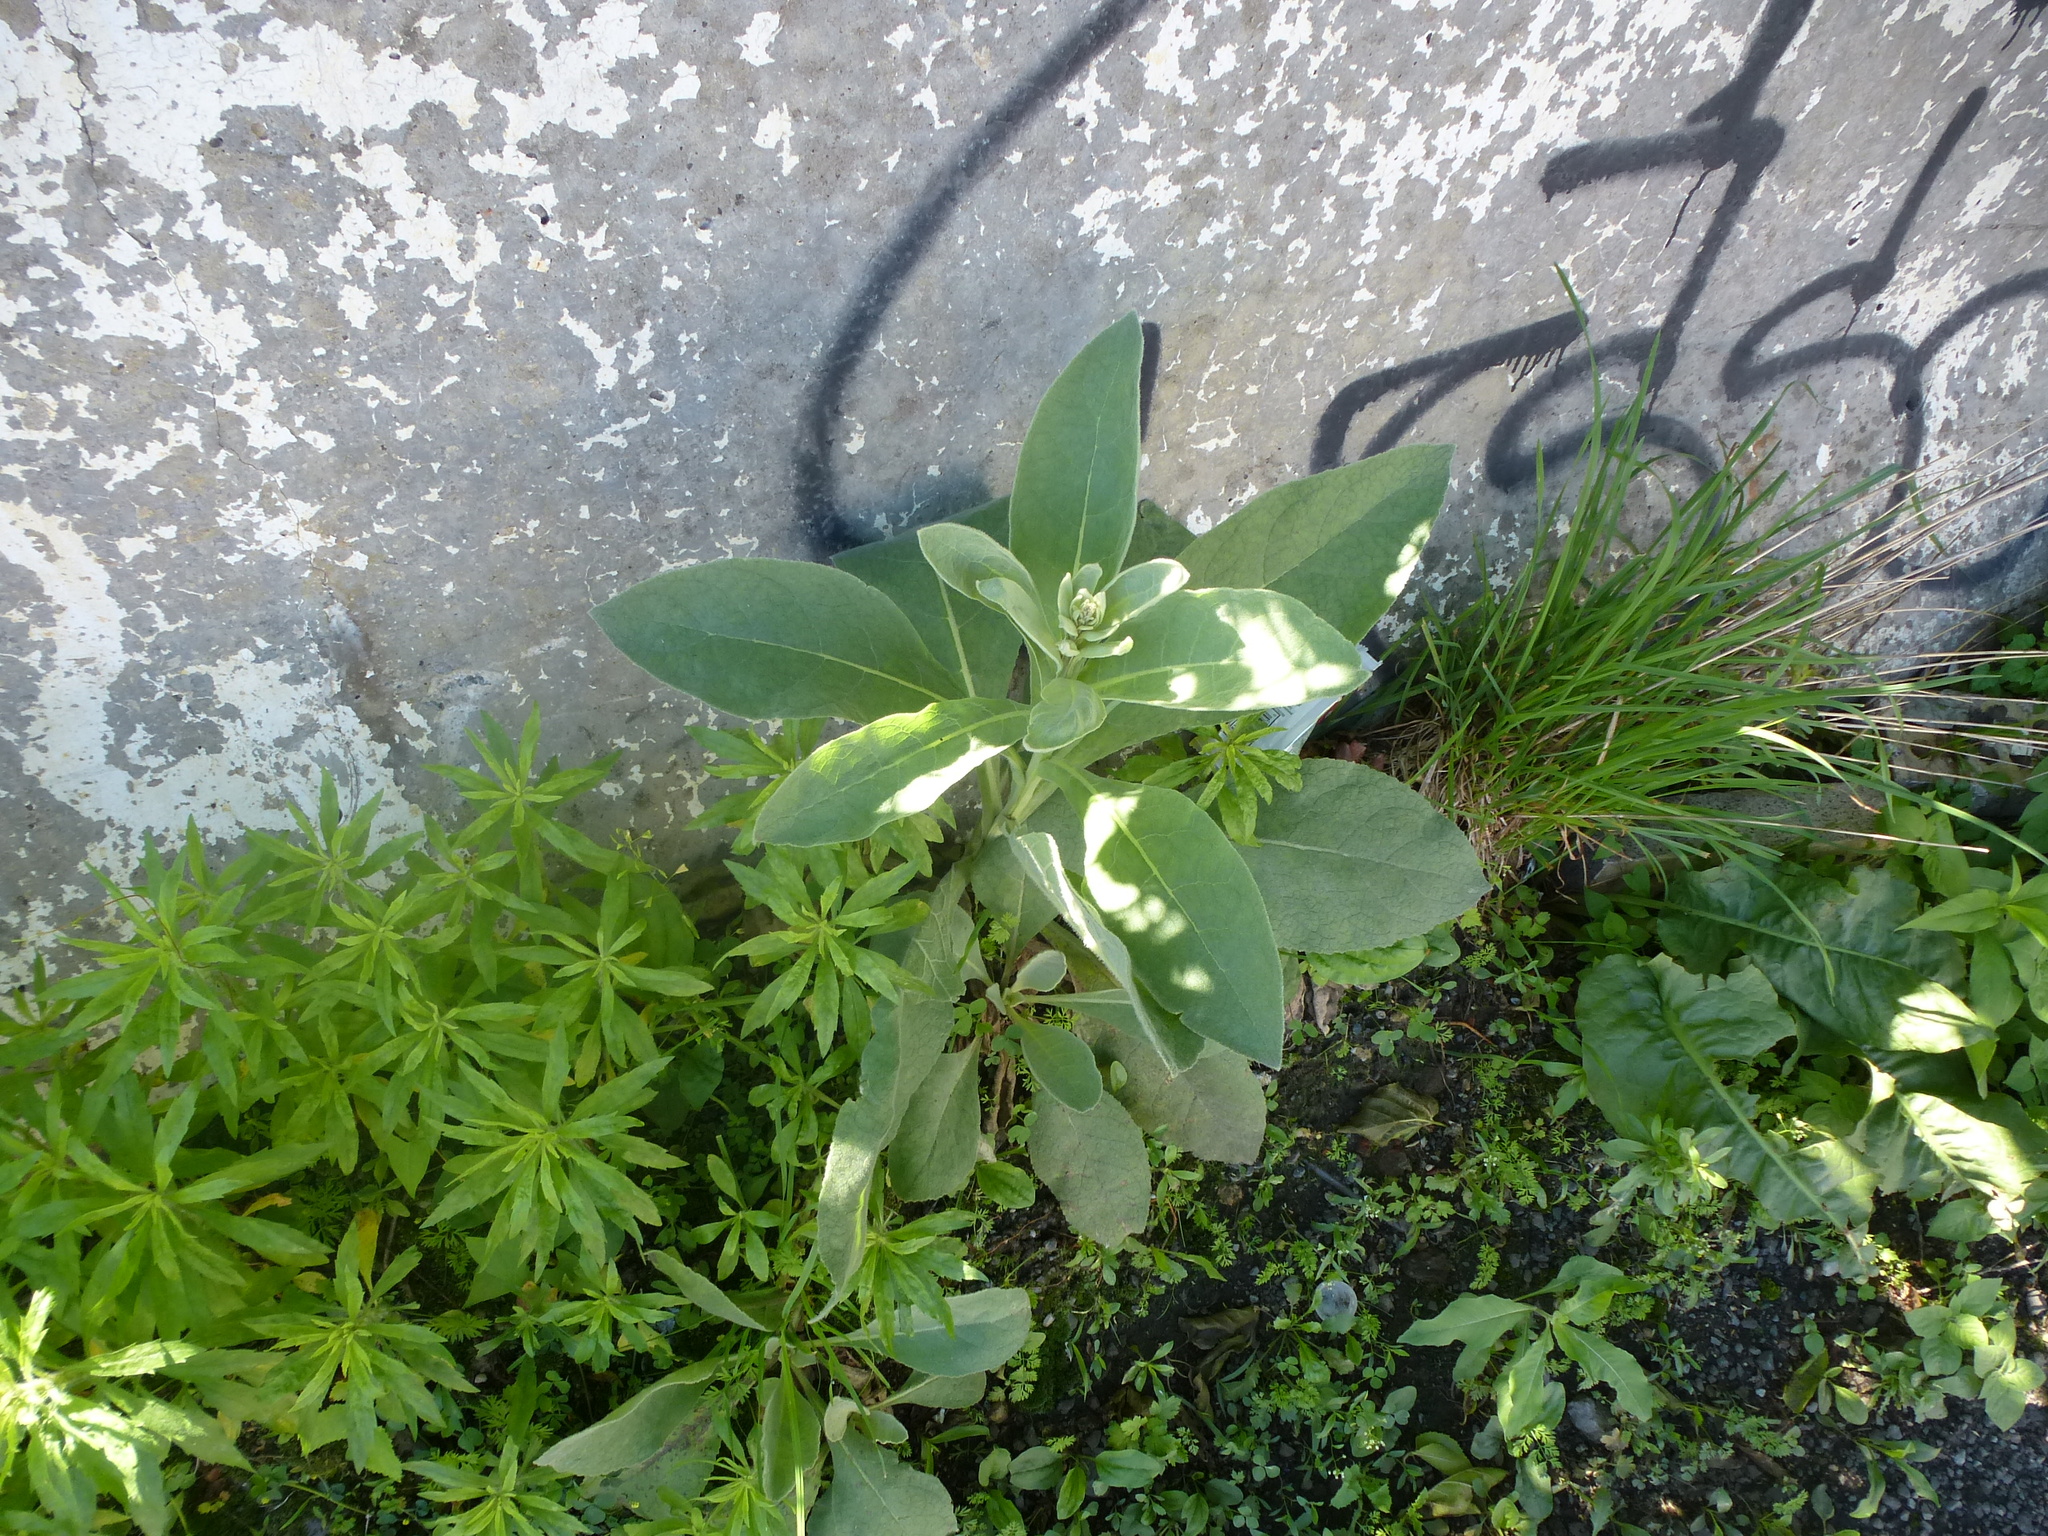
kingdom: Plantae
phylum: Tracheophyta
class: Magnoliopsida
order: Lamiales
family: Scrophulariaceae
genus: Verbascum
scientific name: Verbascum thapsus
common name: Common mullein
